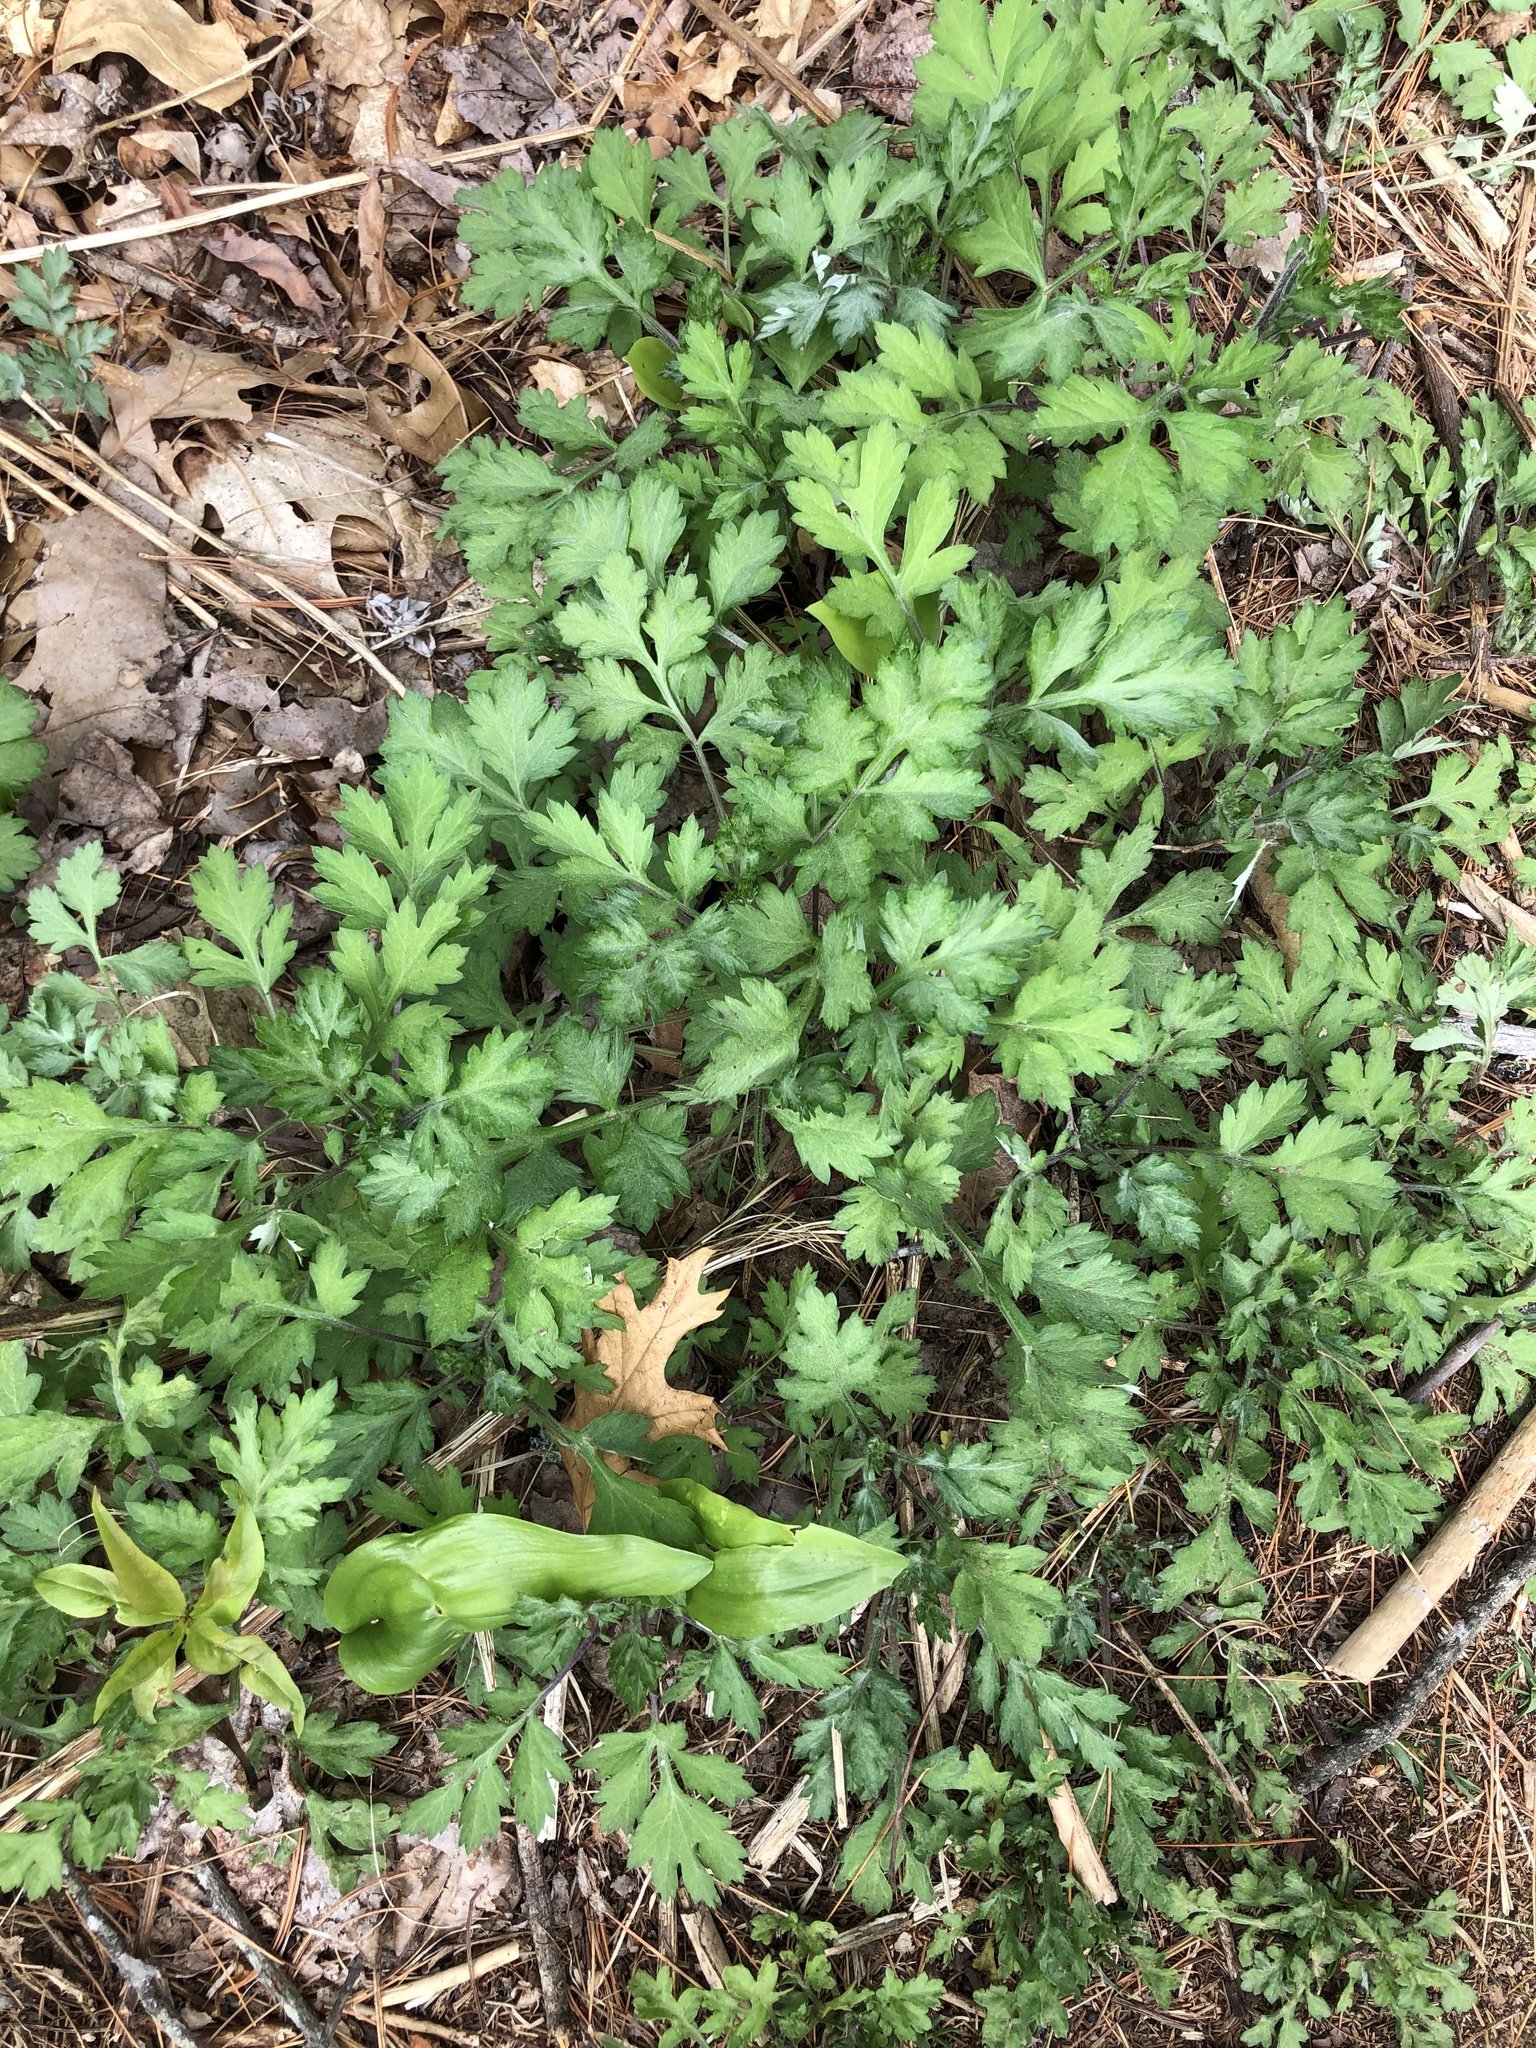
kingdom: Plantae
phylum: Tracheophyta
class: Magnoliopsida
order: Asterales
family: Asteraceae
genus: Artemisia
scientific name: Artemisia vulgaris
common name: Mugwort
